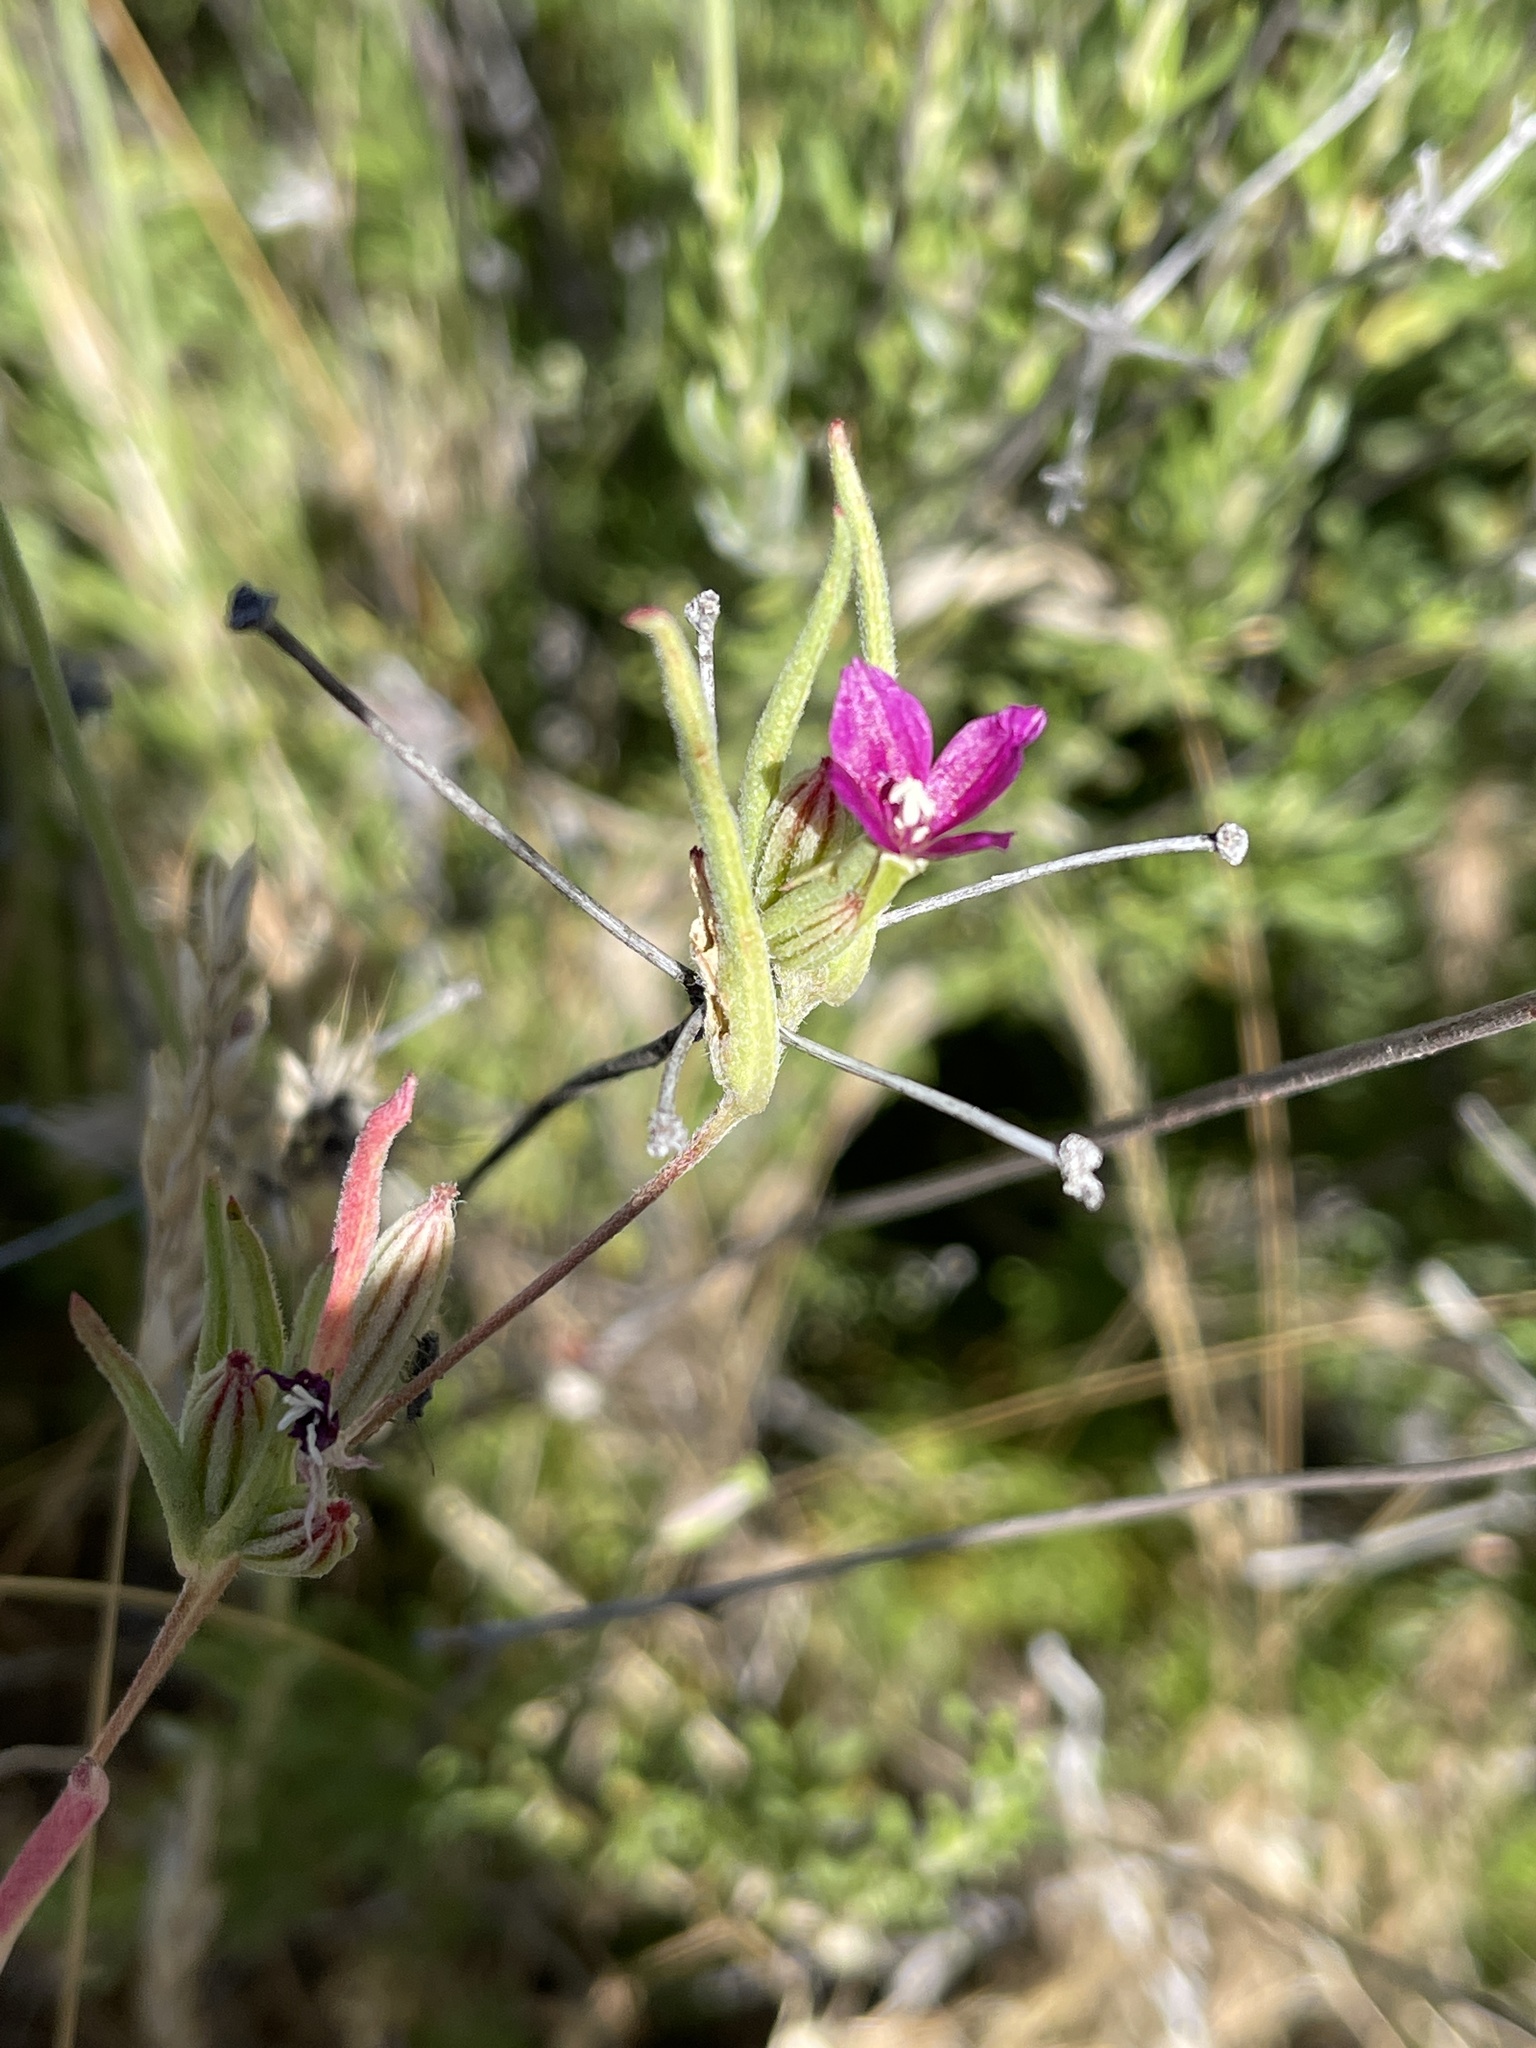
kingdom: Plantae
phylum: Tracheophyta
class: Magnoliopsida
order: Myrtales
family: Onagraceae
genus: Clarkia
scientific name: Clarkia purpurea
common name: Purple clarkia
